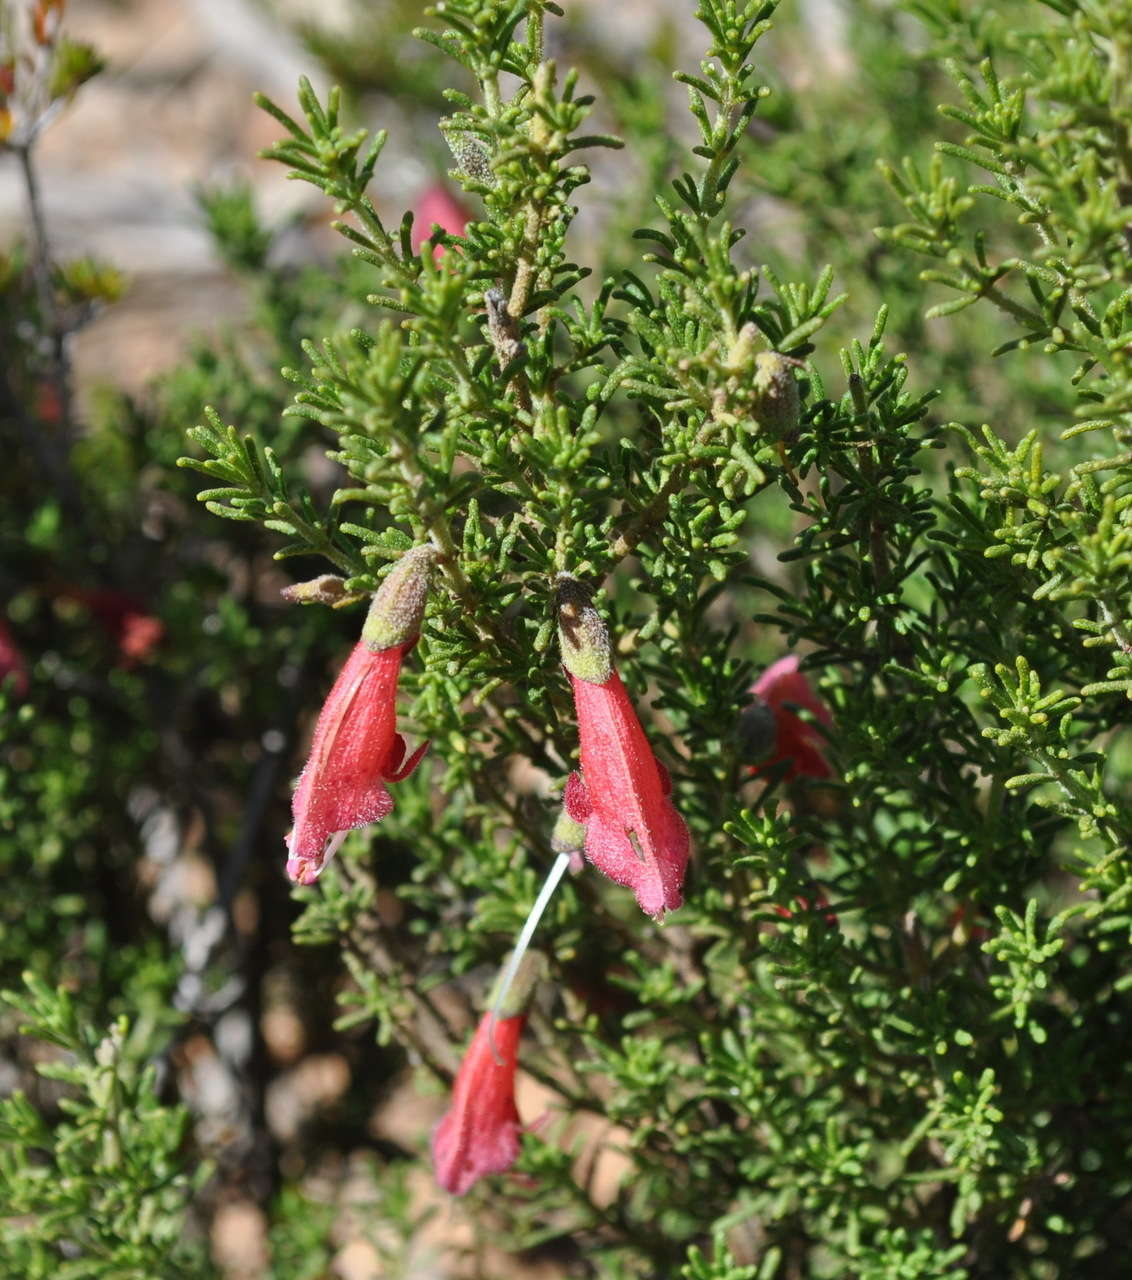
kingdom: Plantae
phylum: Tracheophyta
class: Magnoliopsida
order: Lamiales
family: Lamiaceae
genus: Prostanthera
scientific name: Prostanthera aspalathoides
